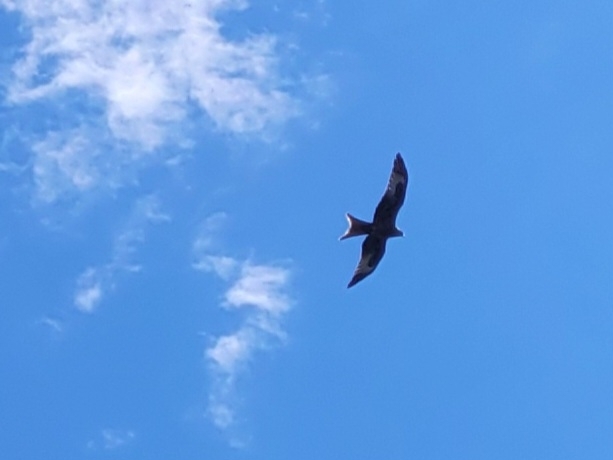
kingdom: Animalia
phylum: Chordata
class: Aves
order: Accipitriformes
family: Accipitridae
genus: Milvus
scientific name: Milvus milvus
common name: Red kite
